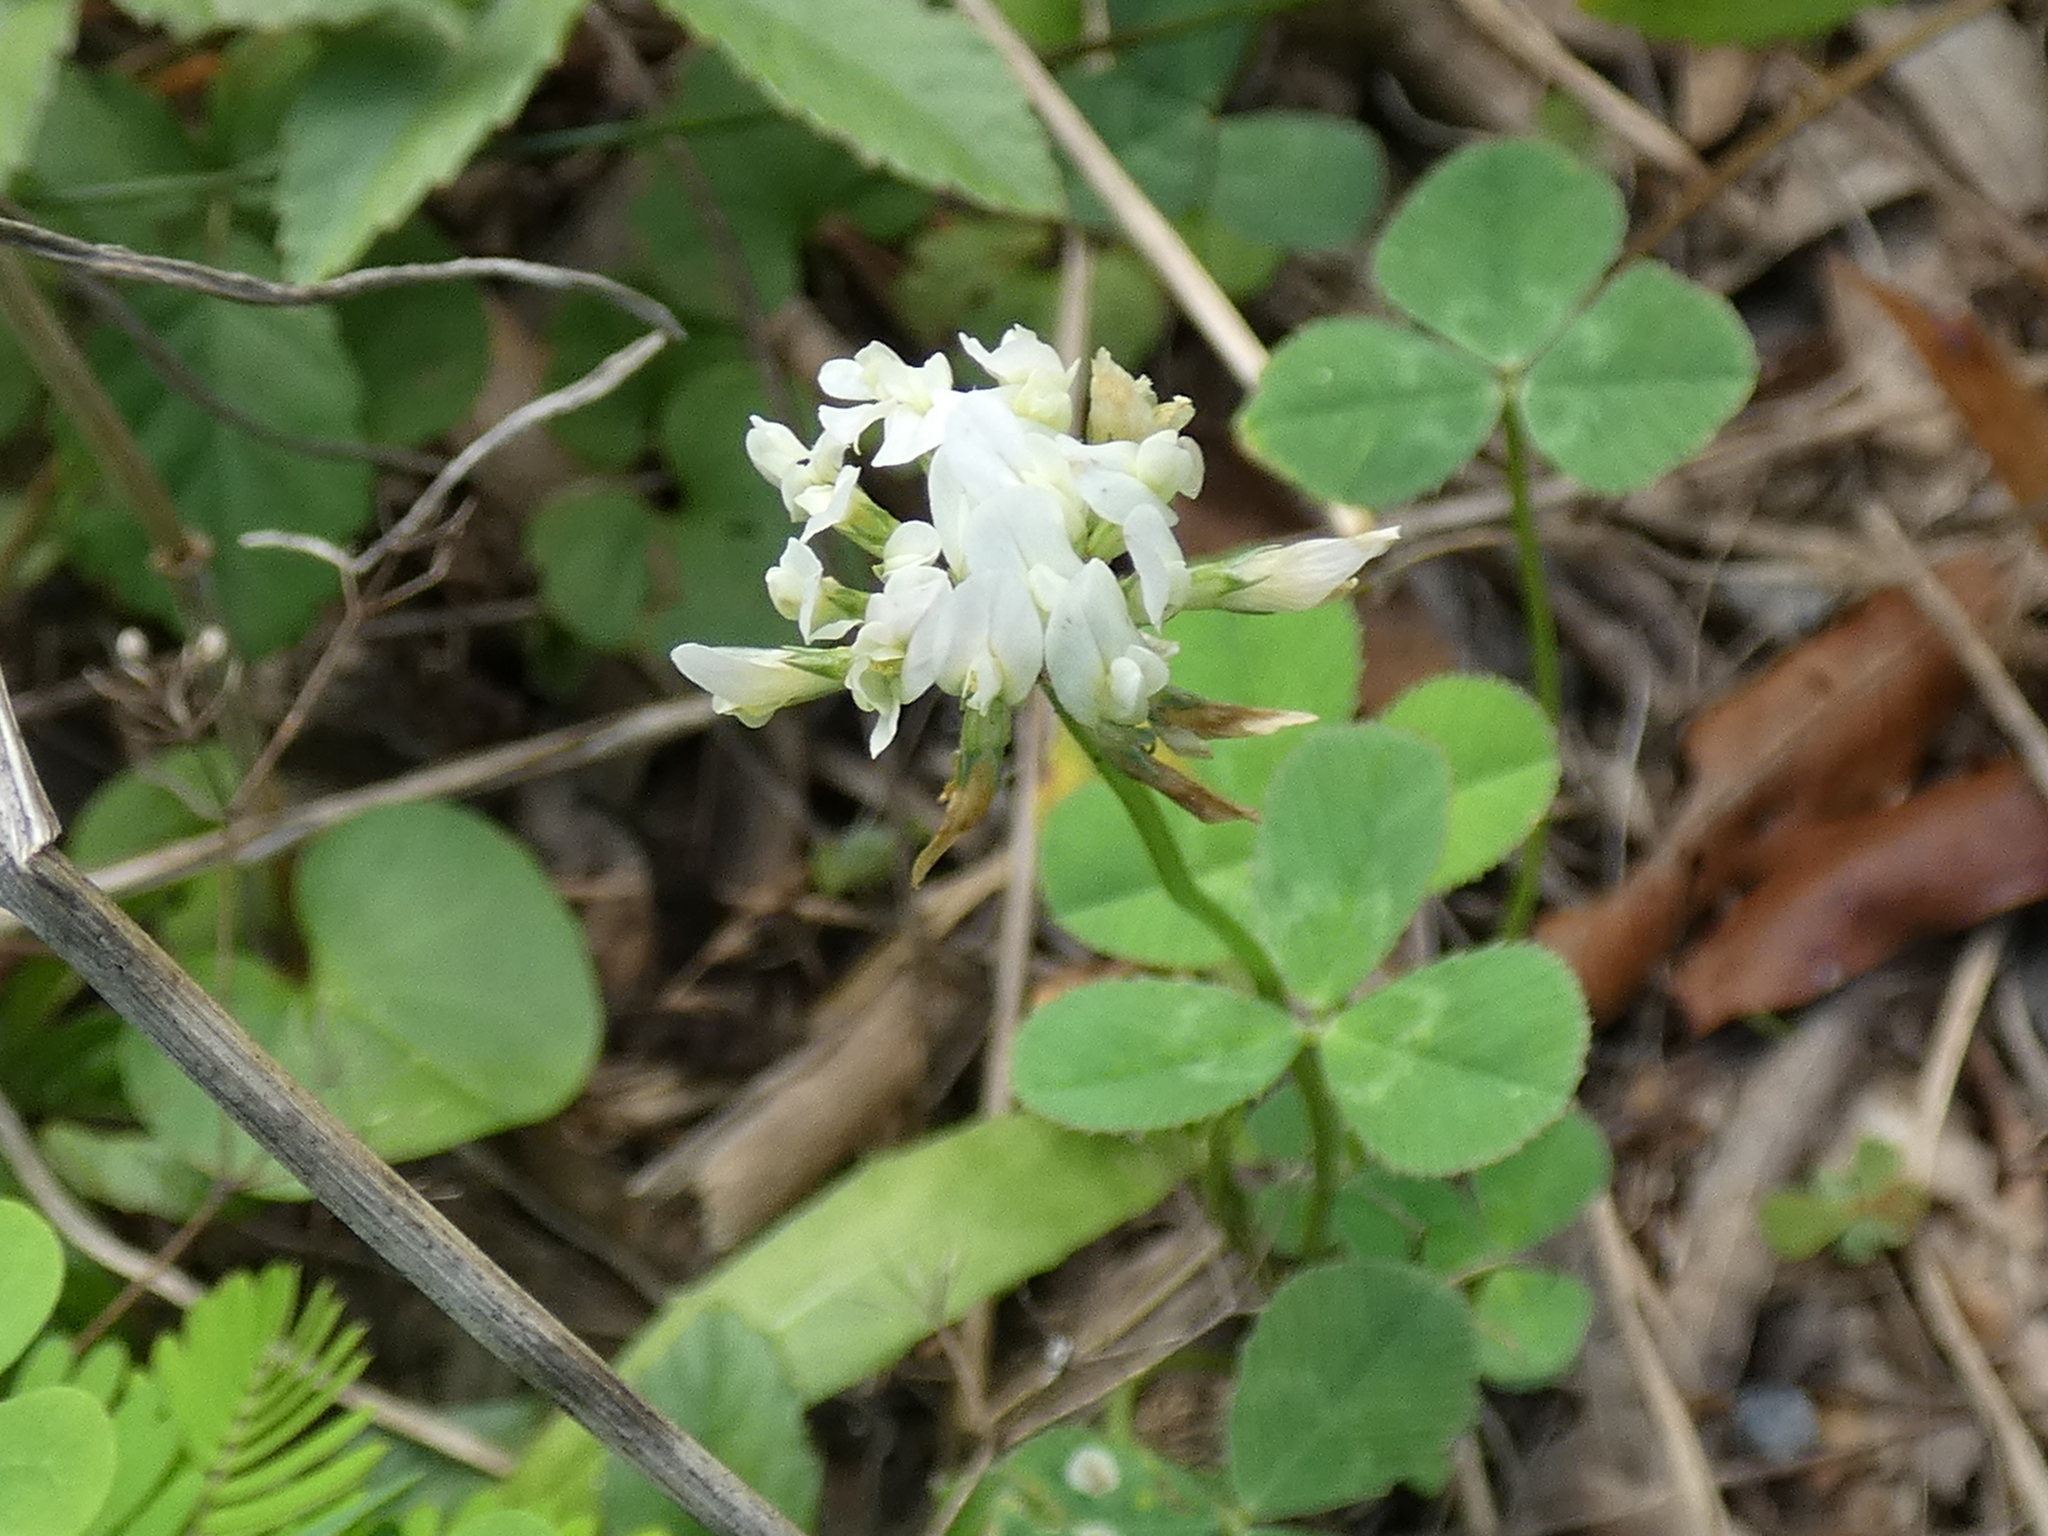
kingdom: Plantae
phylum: Tracheophyta
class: Magnoliopsida
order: Fabales
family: Fabaceae
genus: Trifolium
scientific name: Trifolium repens
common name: White clover
